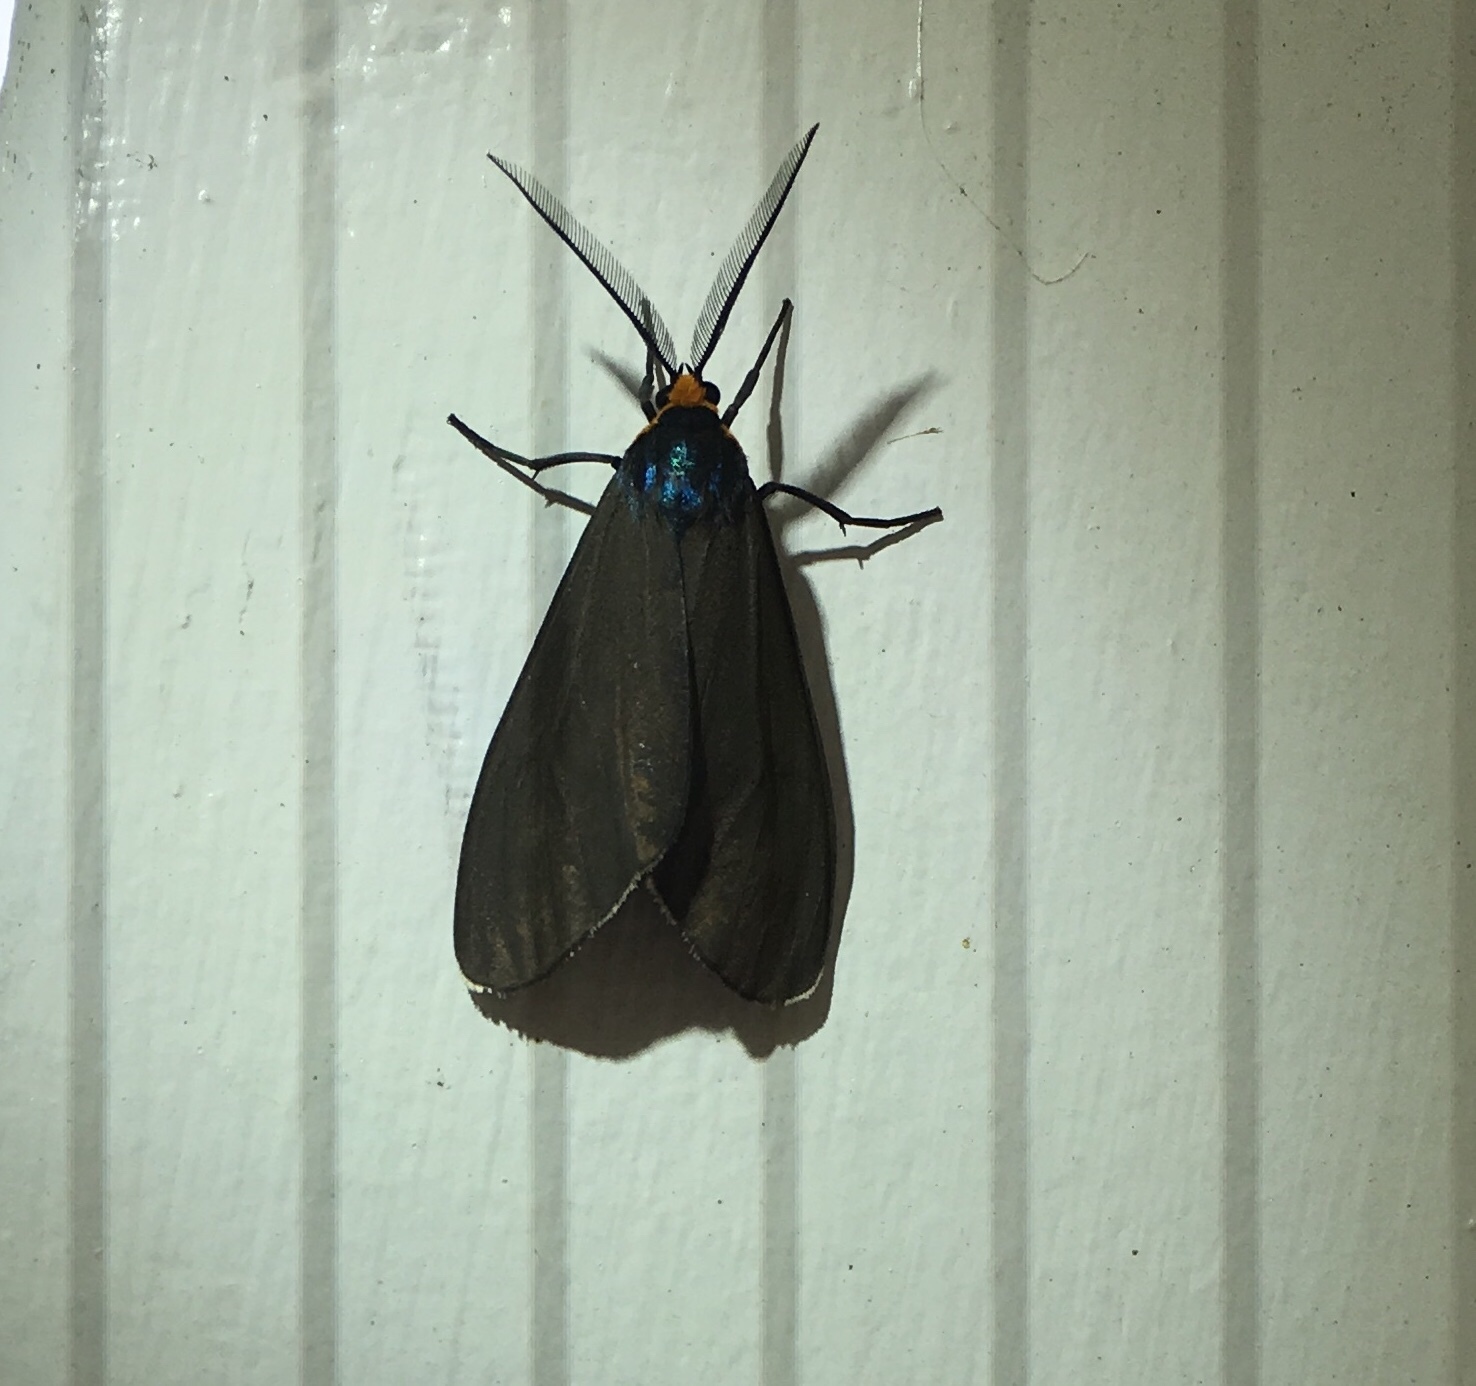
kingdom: Animalia
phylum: Arthropoda
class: Insecta
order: Lepidoptera
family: Erebidae
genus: Ctenucha
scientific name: Ctenucha virginica
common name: Virginia ctenucha moth
